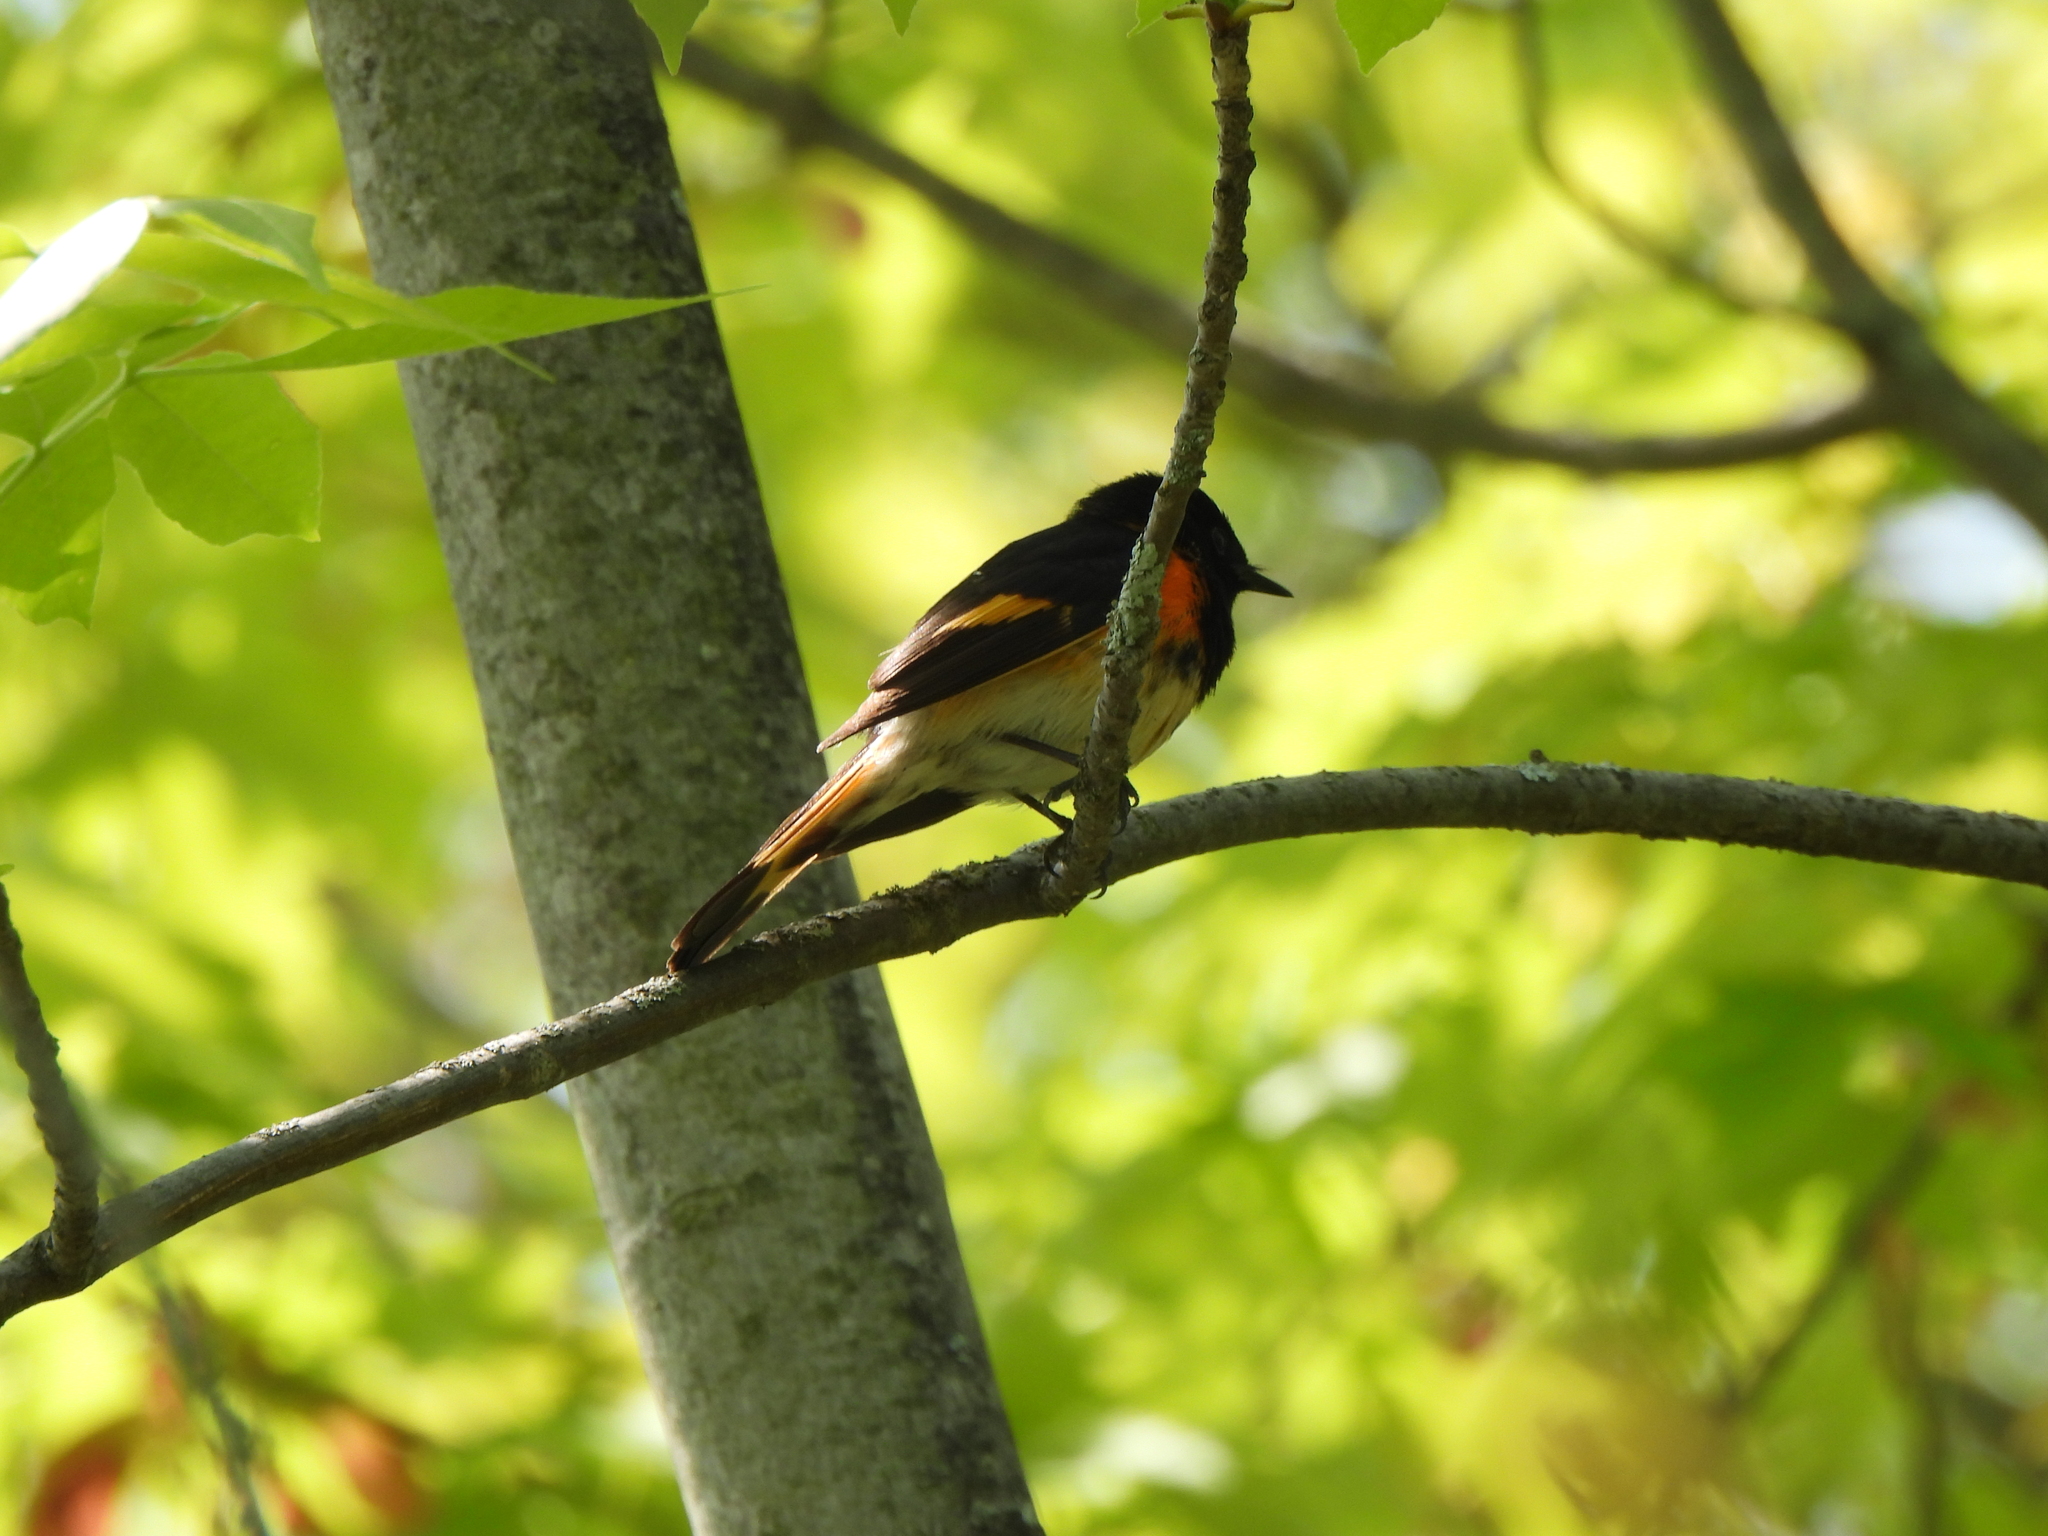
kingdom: Animalia
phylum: Chordata
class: Aves
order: Passeriformes
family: Parulidae
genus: Setophaga
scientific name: Setophaga ruticilla
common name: American redstart
